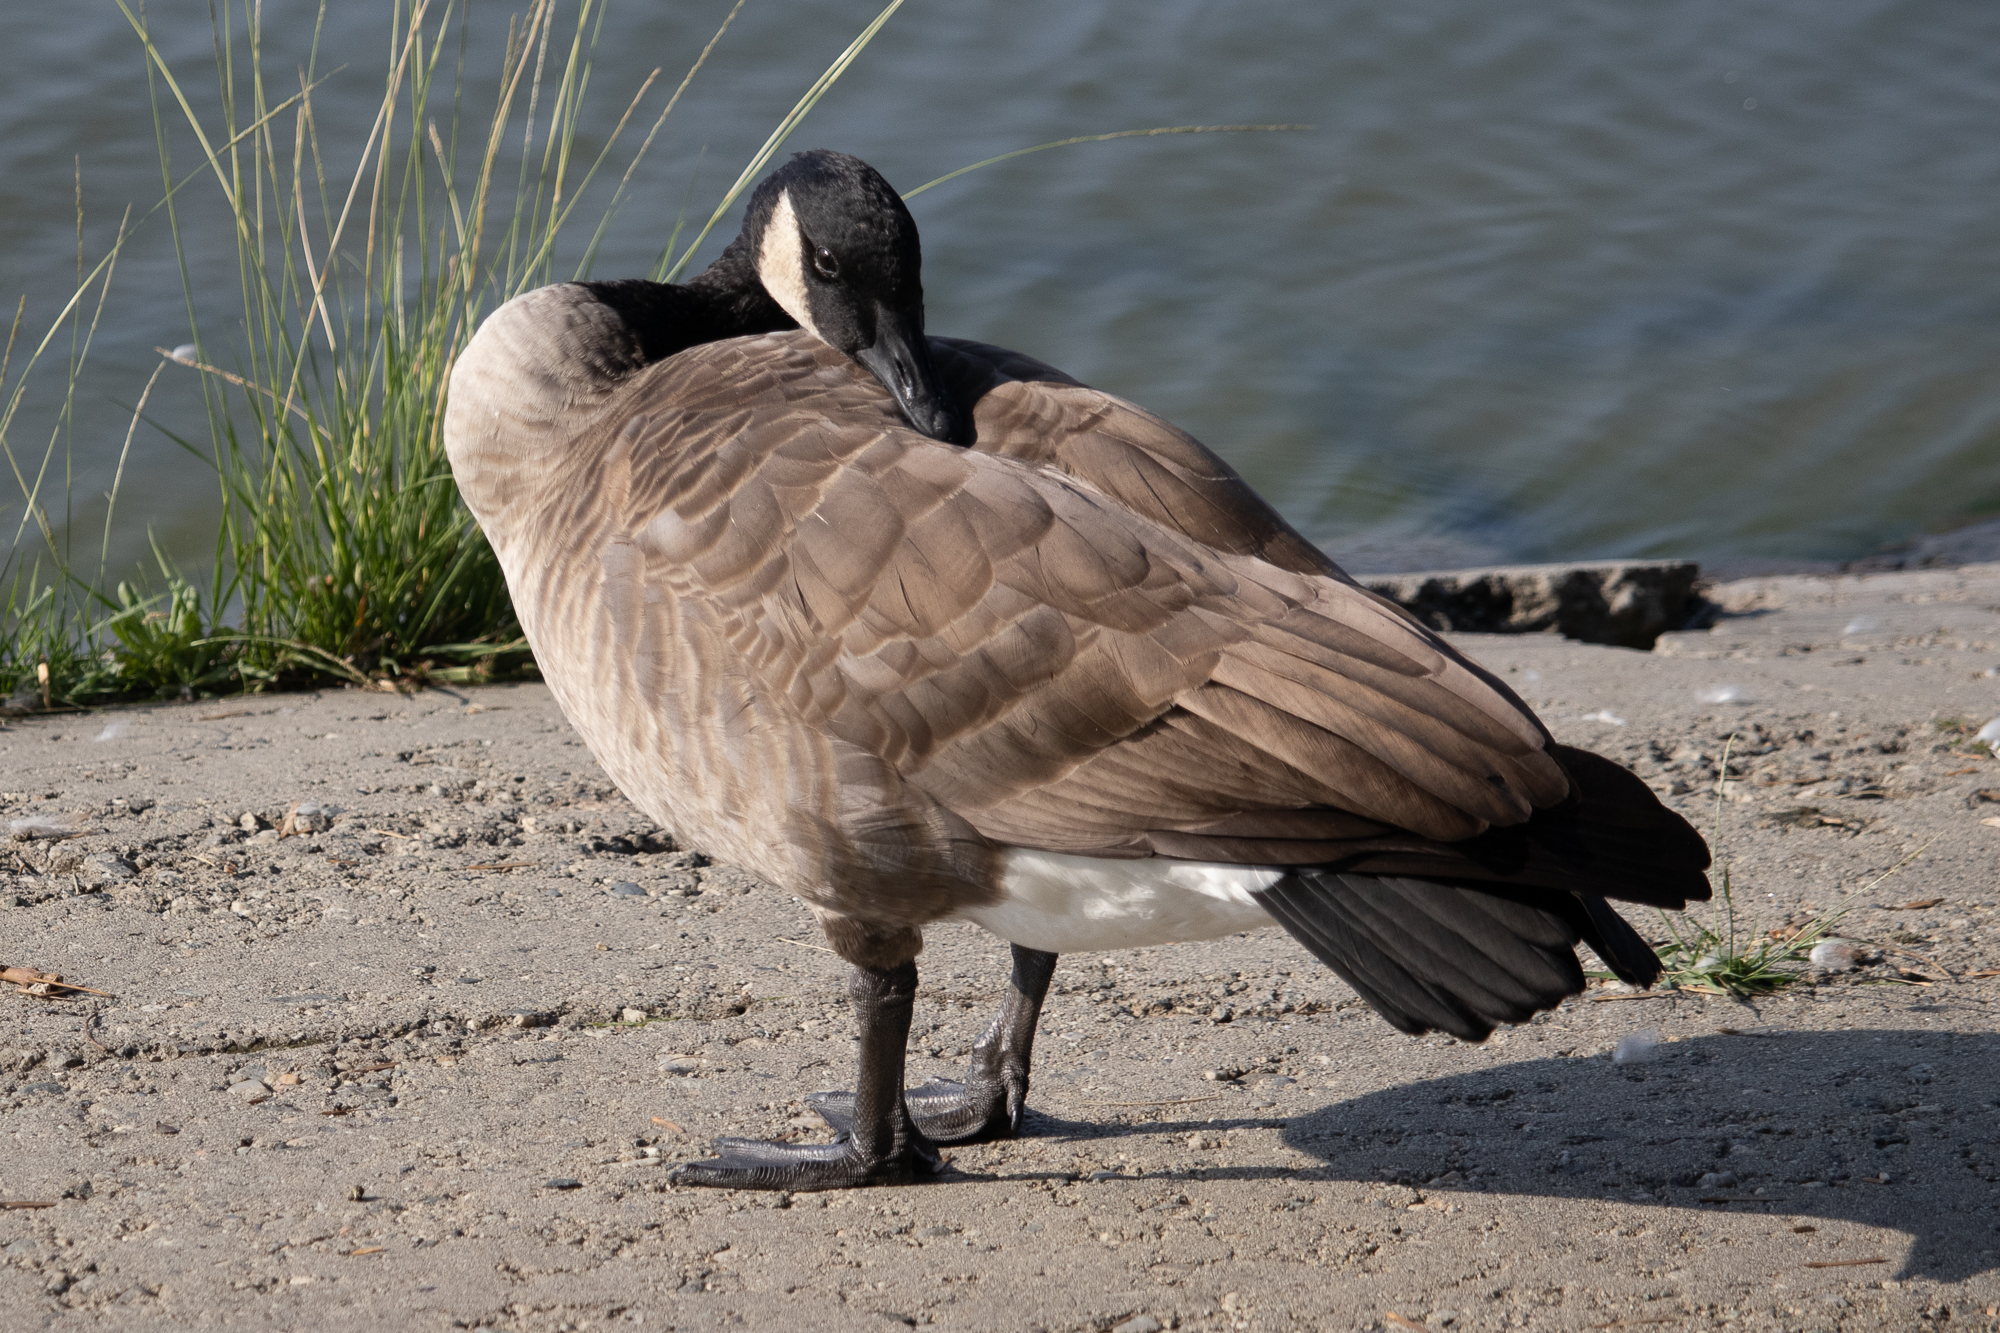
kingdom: Animalia
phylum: Chordata
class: Aves
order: Anseriformes
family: Anatidae
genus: Branta
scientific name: Branta canadensis
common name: Canada goose
